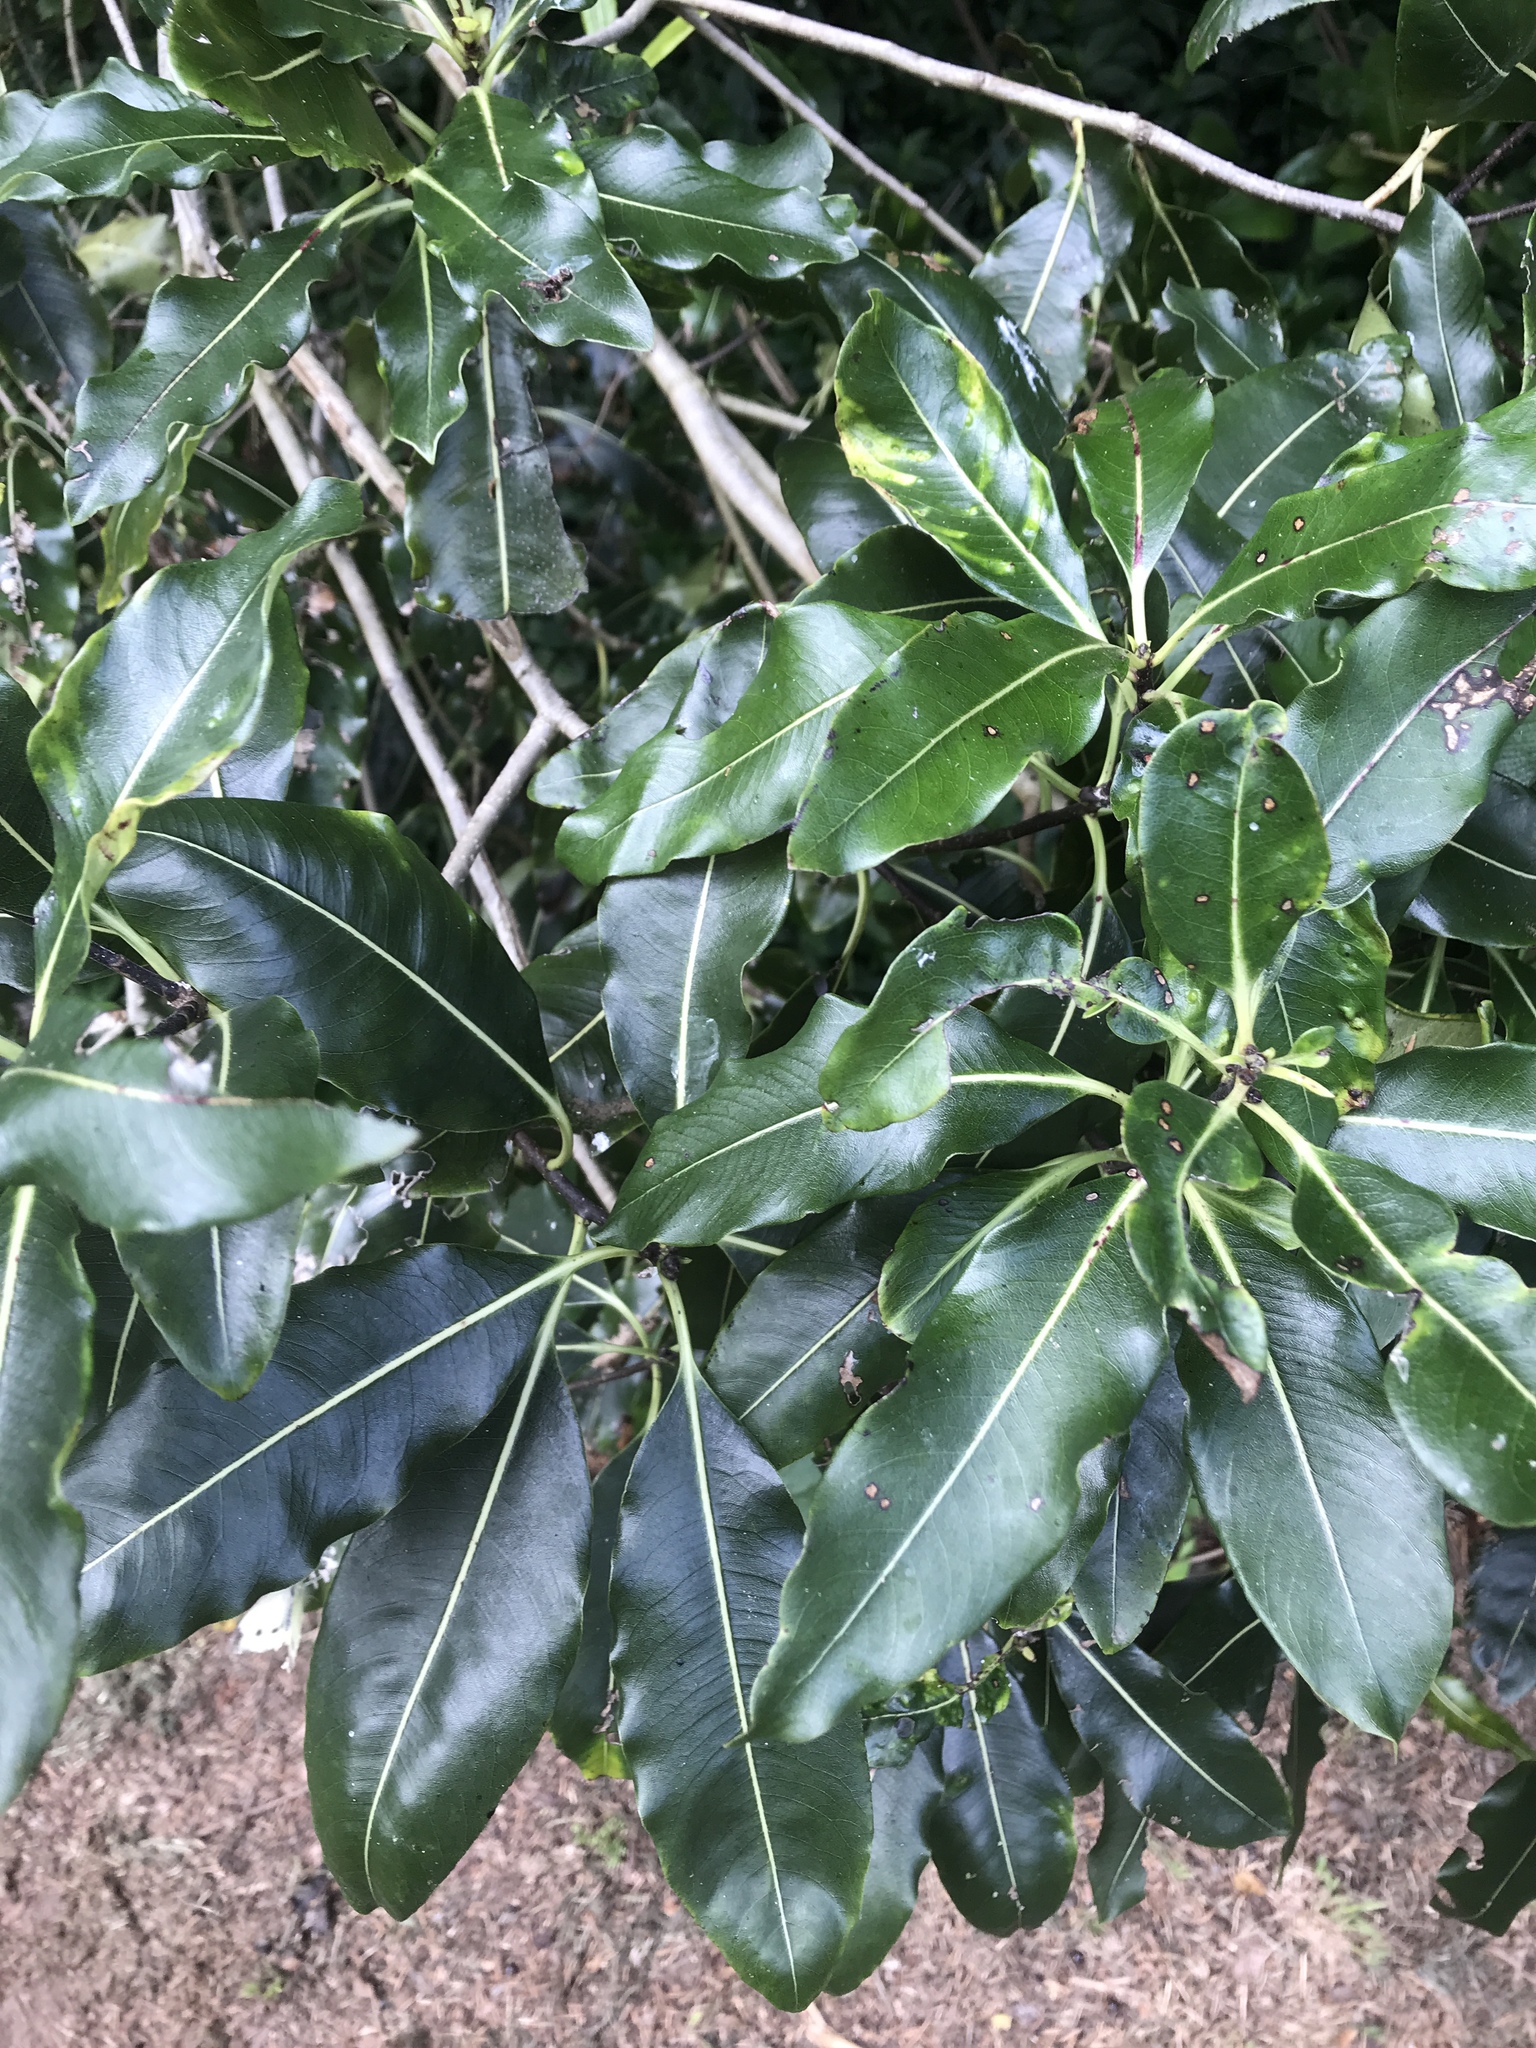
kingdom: Plantae
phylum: Tracheophyta
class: Magnoliopsida
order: Apiales
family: Pittosporaceae
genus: Pittosporum
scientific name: Pittosporum eugenioides
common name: Lemonwood
